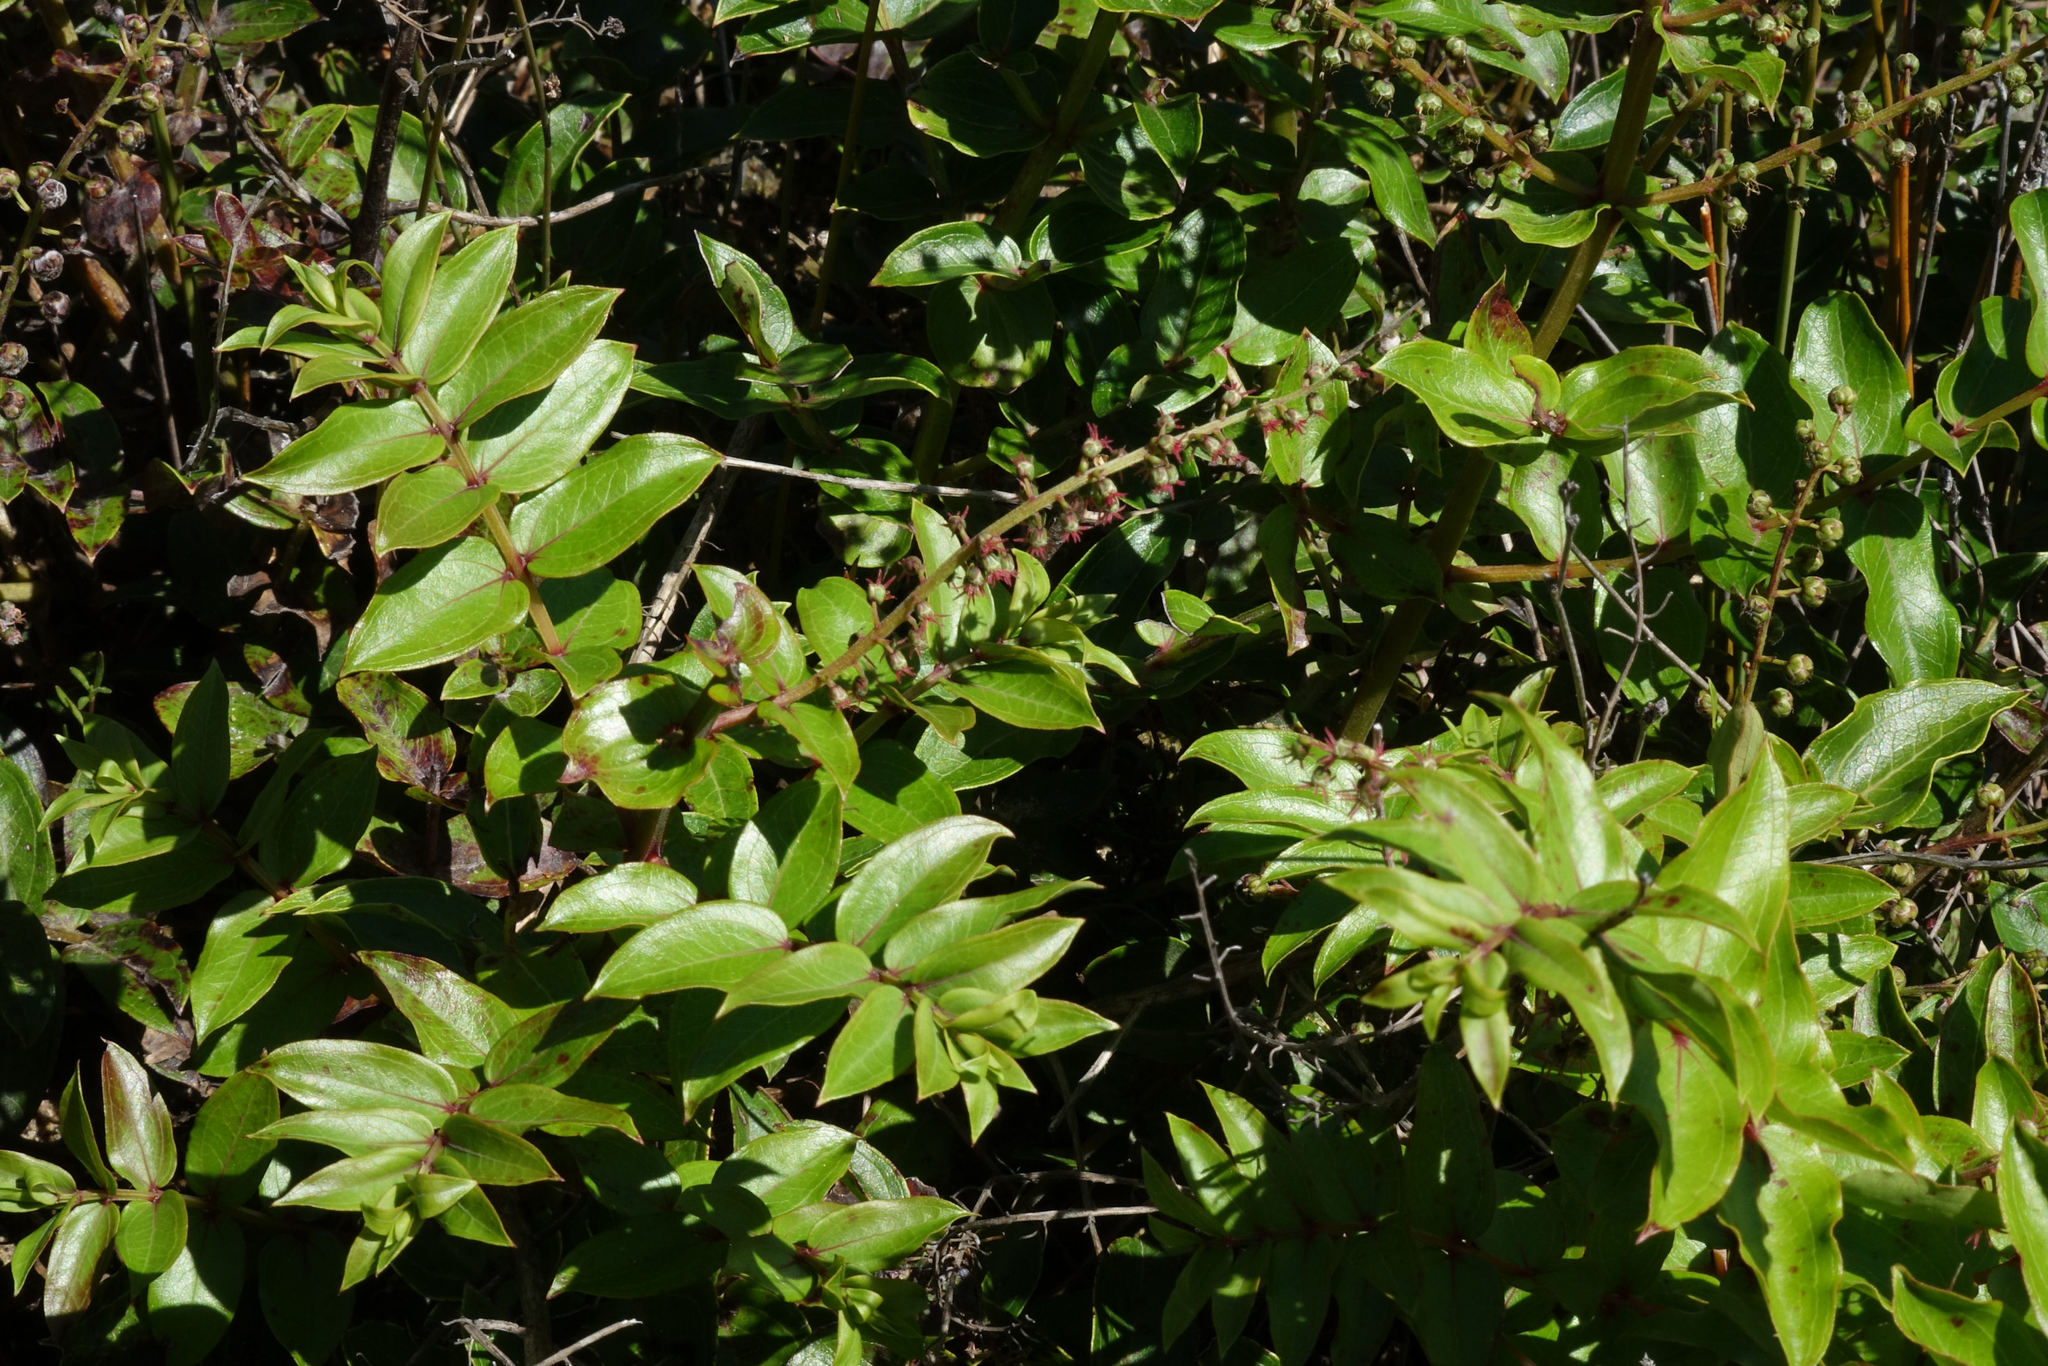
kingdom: Plantae
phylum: Tracheophyta
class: Magnoliopsida
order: Cucurbitales
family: Coriariaceae
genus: Coriaria
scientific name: Coriaria sarmentosa
